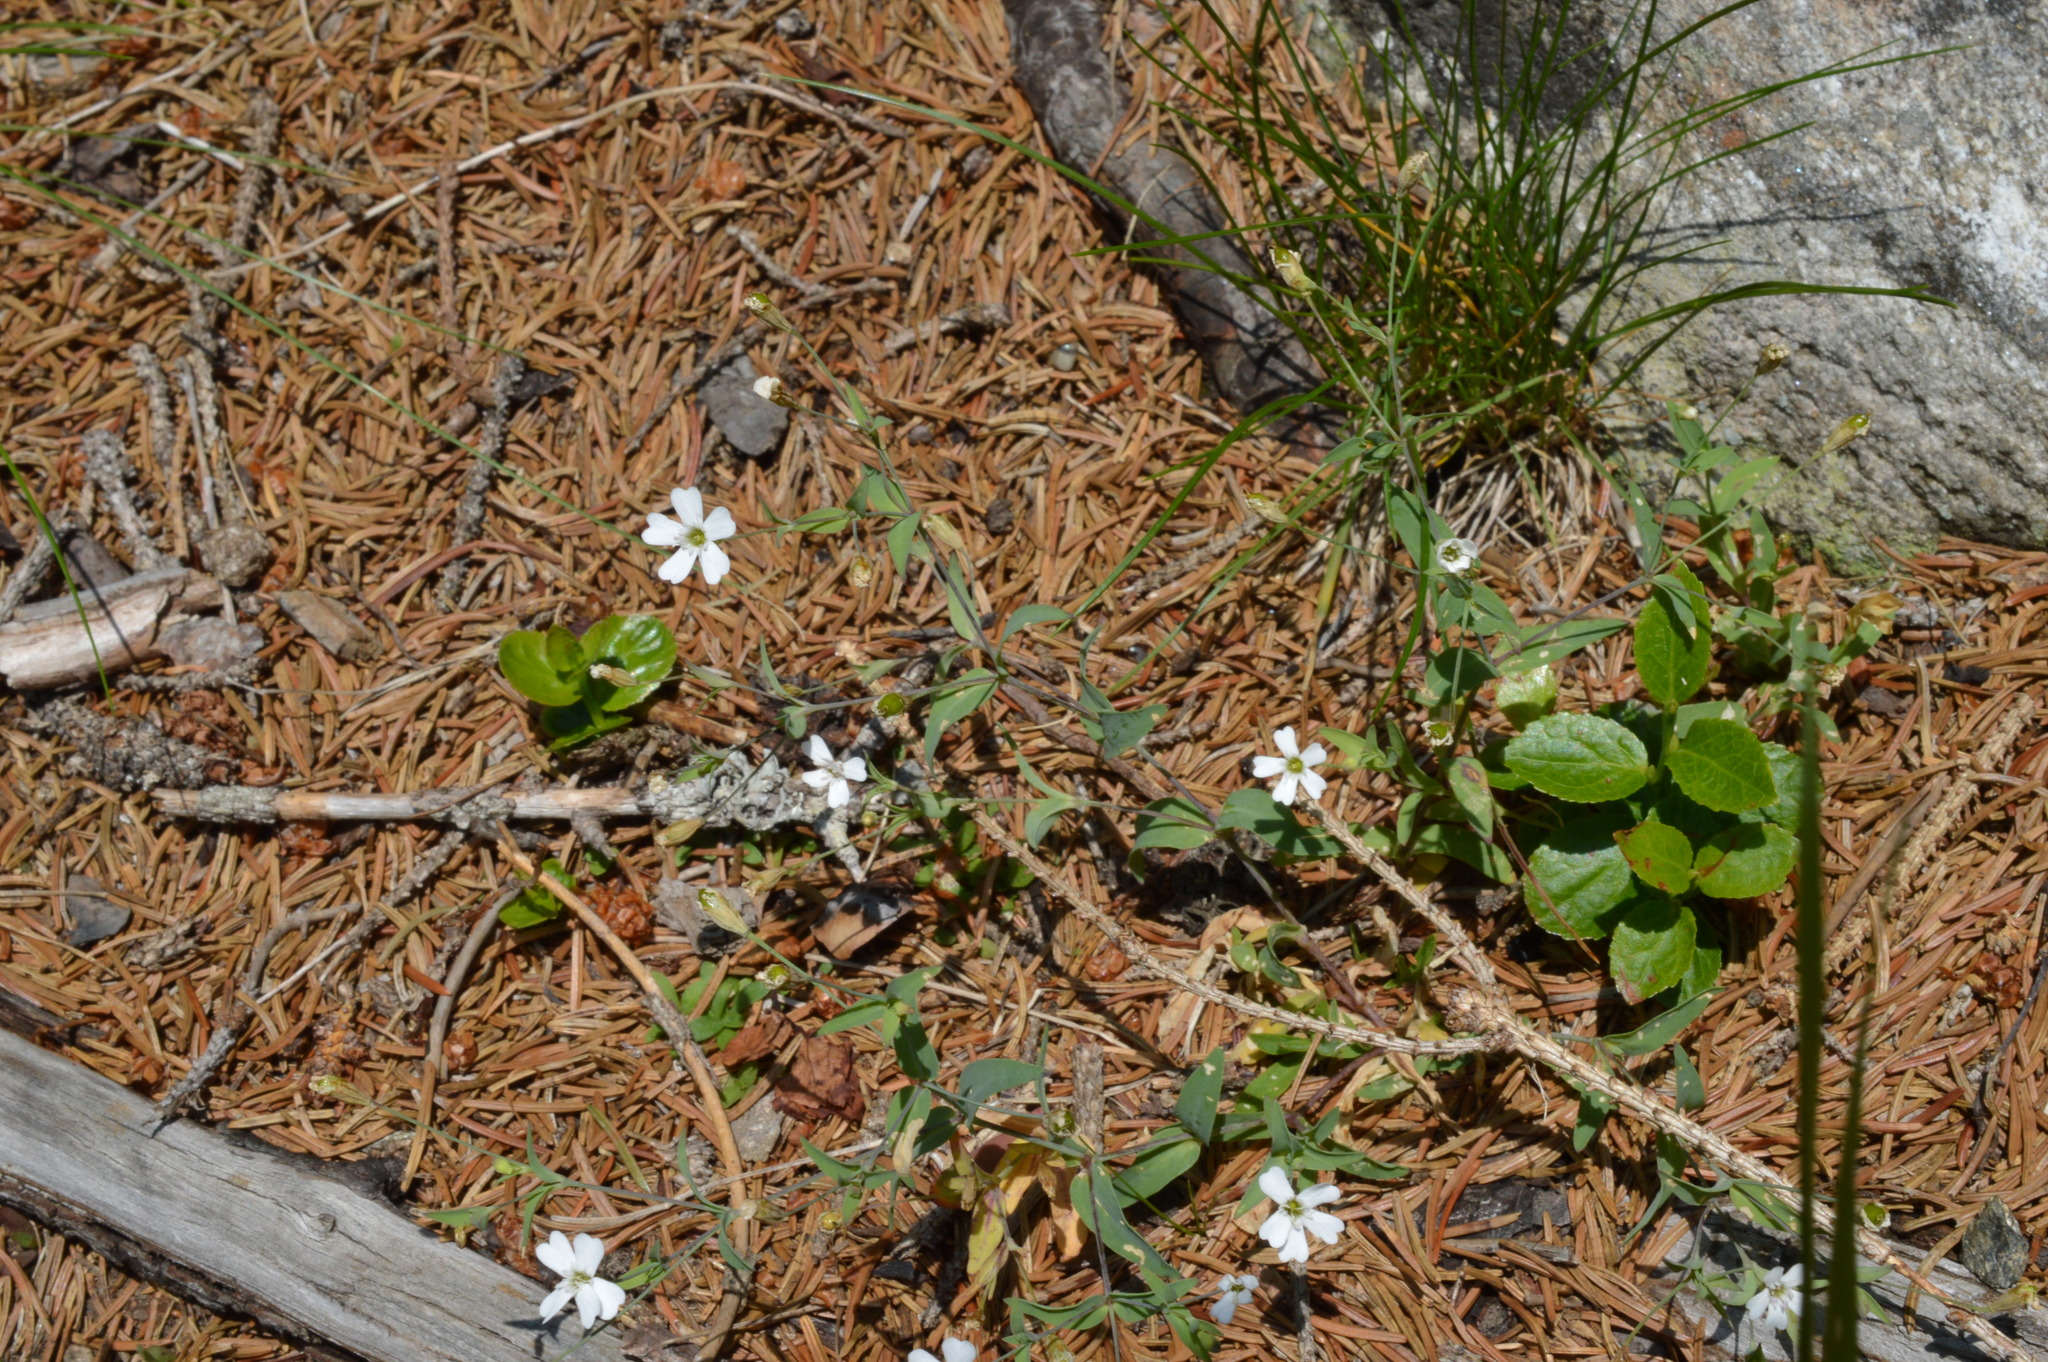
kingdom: Plantae
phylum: Tracheophyta
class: Magnoliopsida
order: Caryophyllales
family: Caryophyllaceae
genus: Atocion
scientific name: Atocion rupestre
